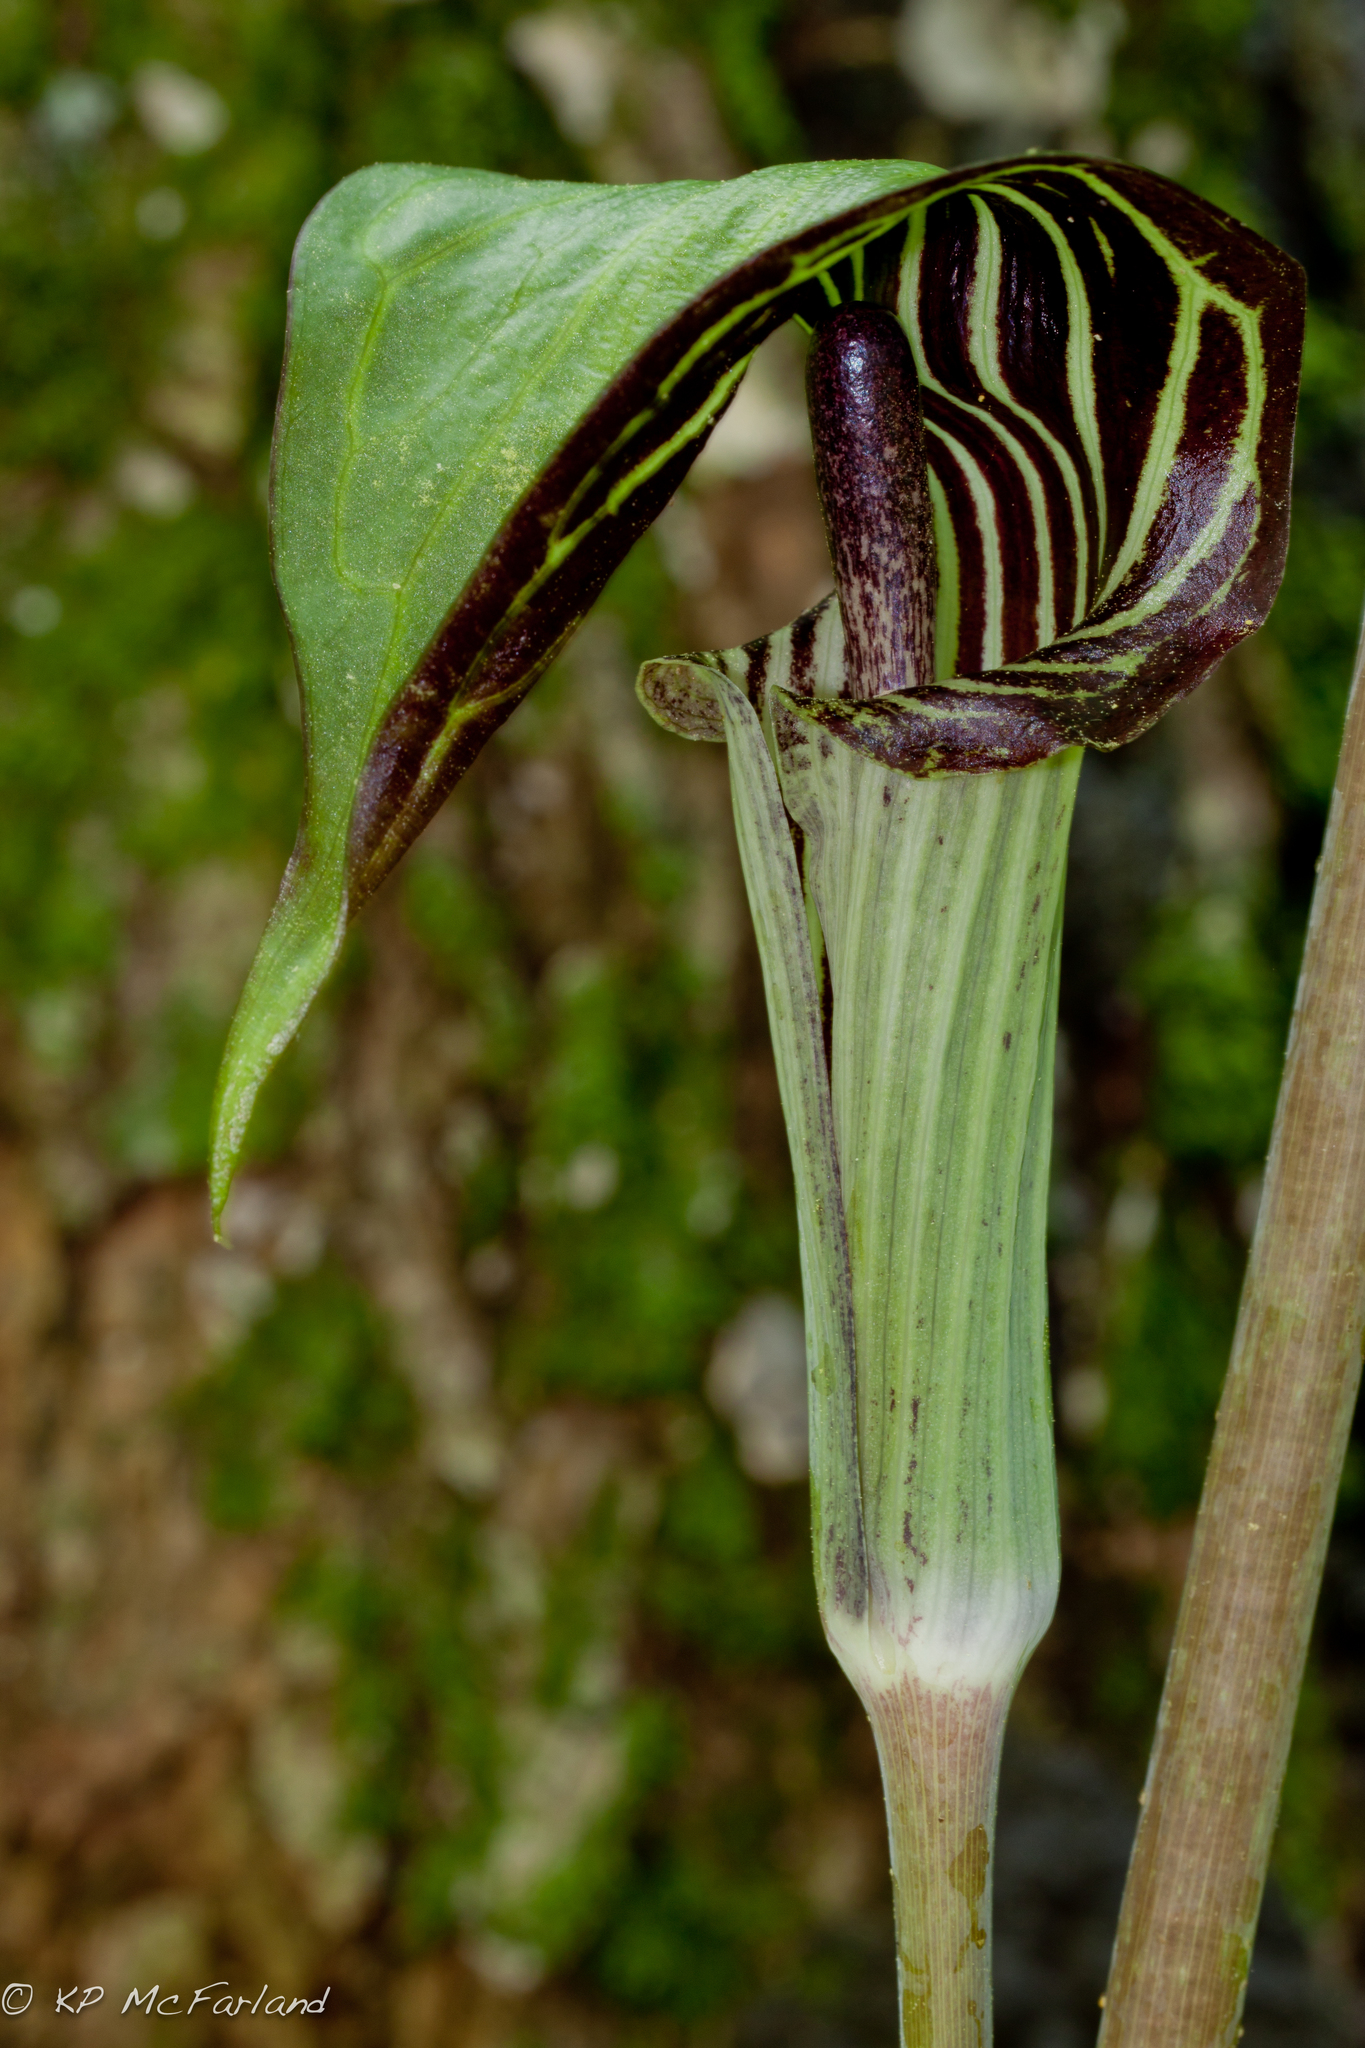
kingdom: Plantae
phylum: Tracheophyta
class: Liliopsida
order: Alismatales
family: Araceae
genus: Arisaema
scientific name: Arisaema triphyllum
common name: Jack-in-the-pulpit
